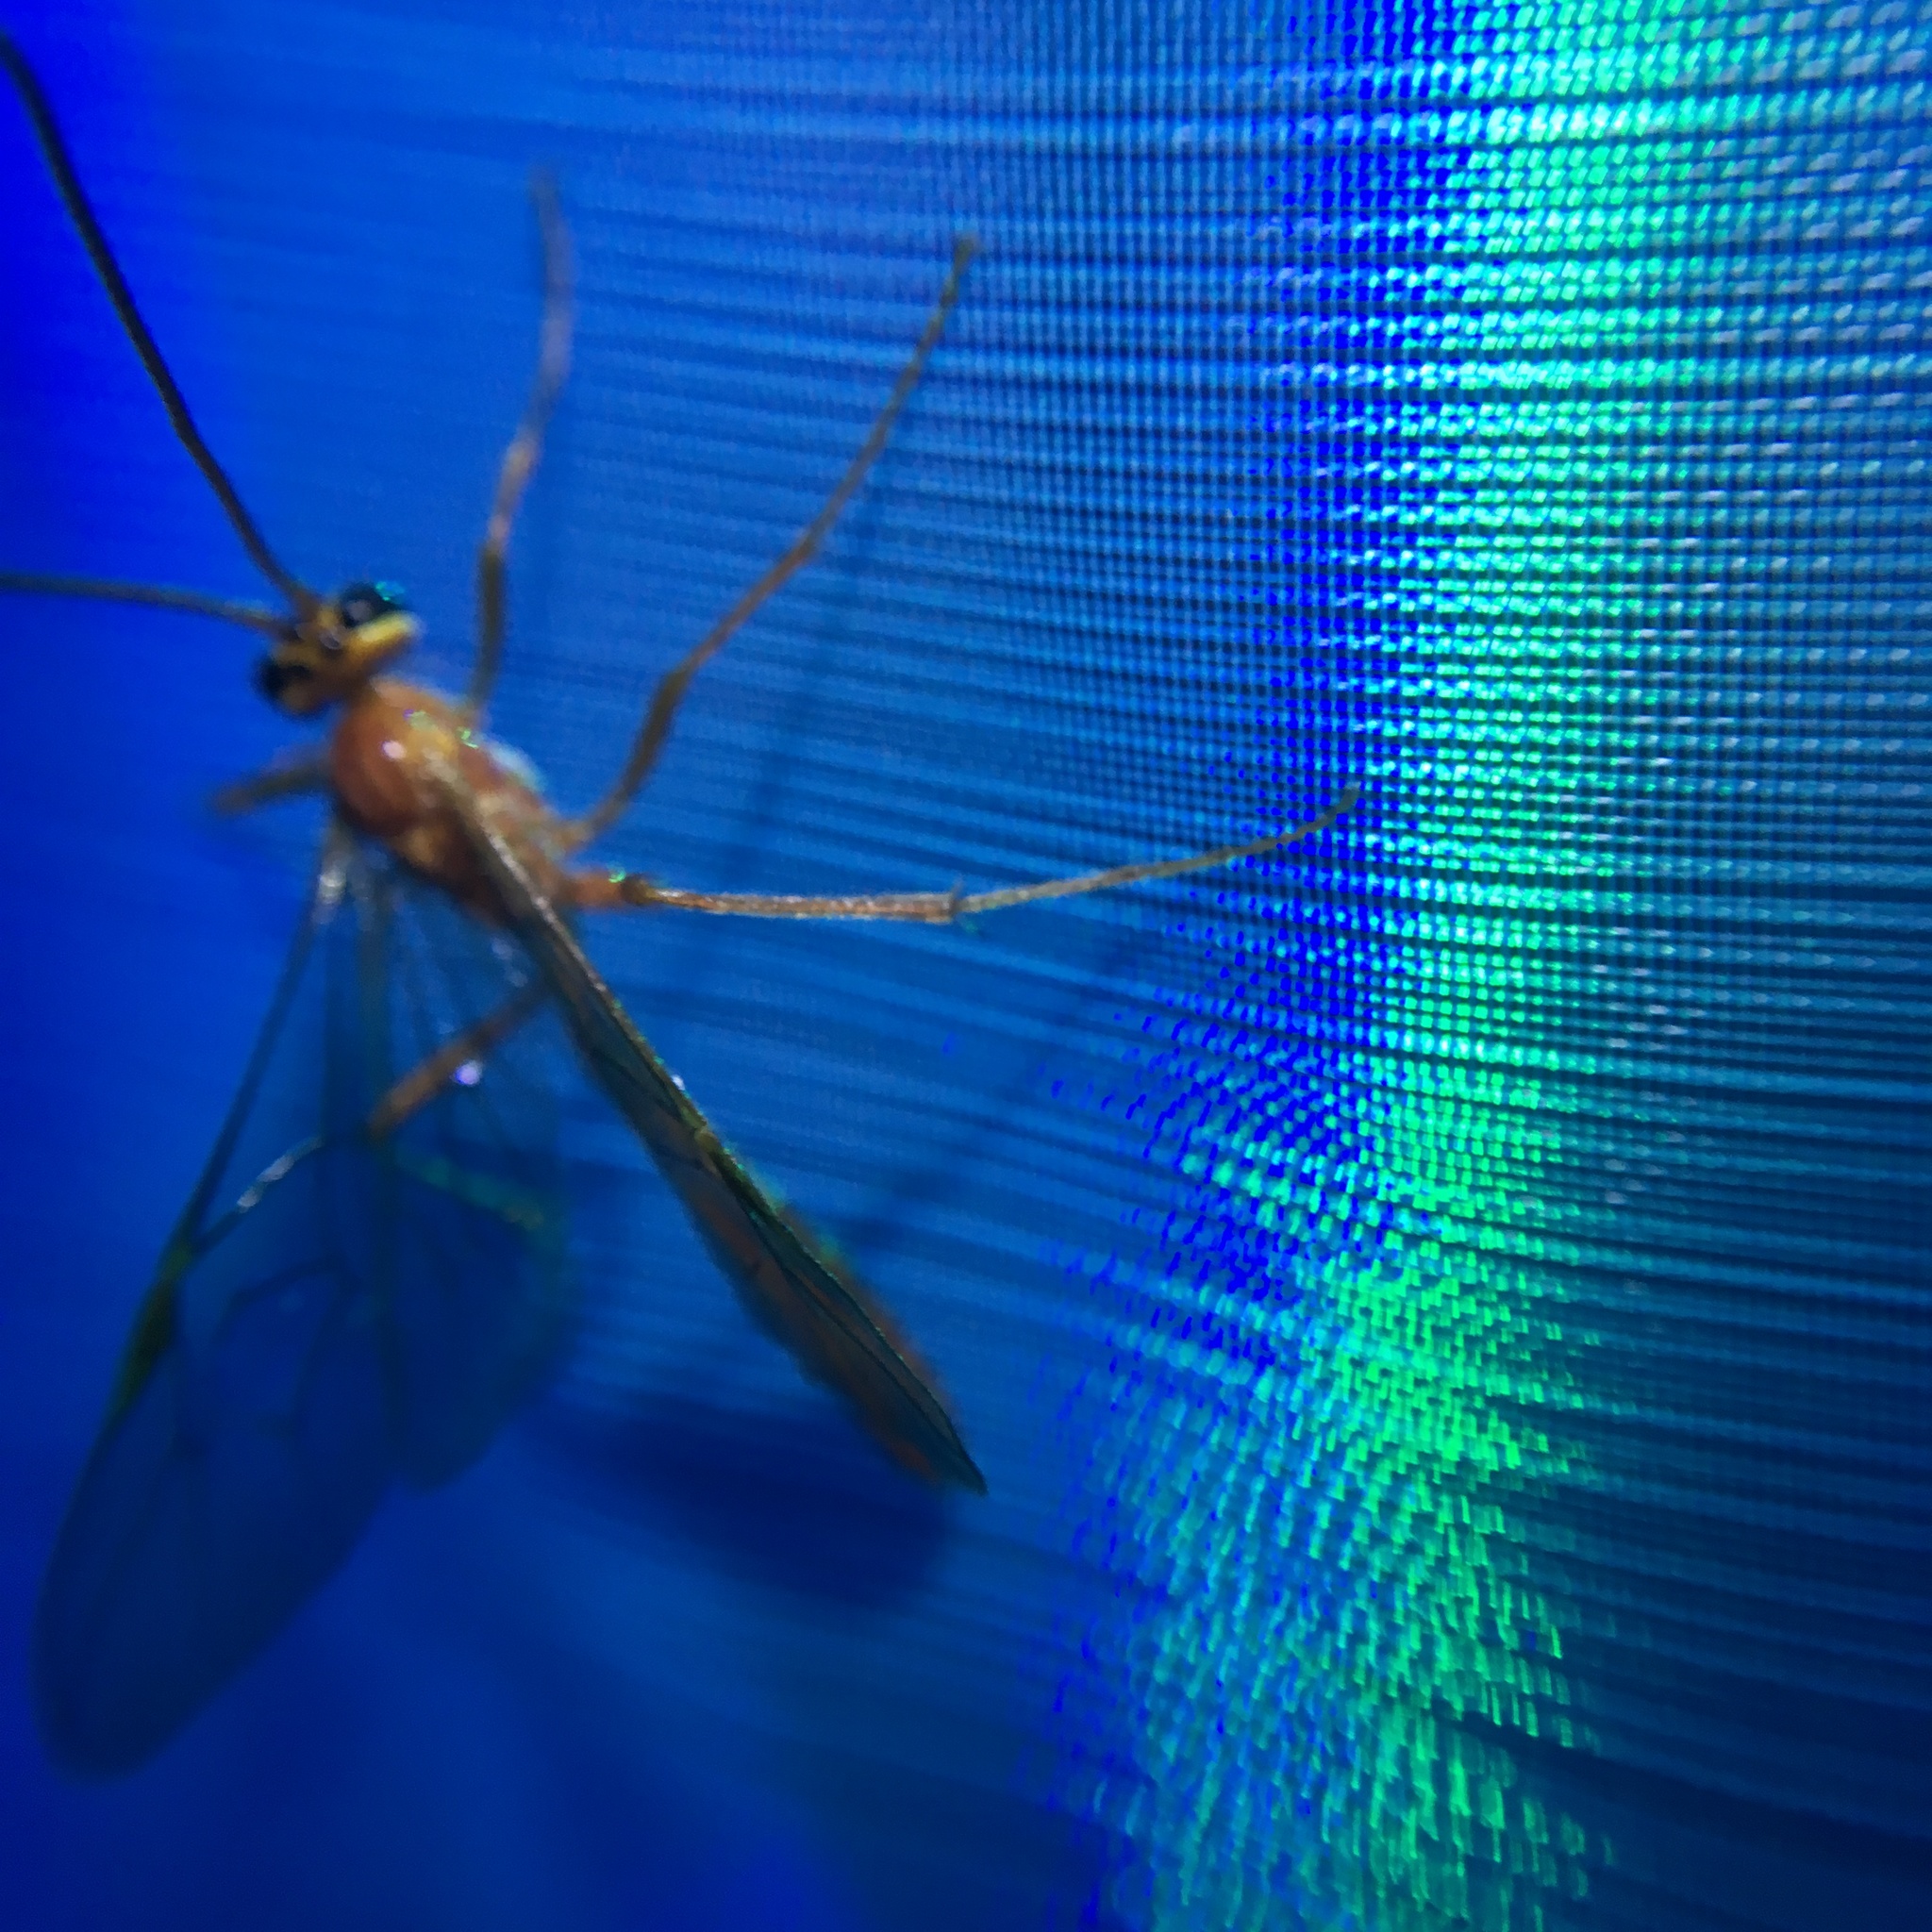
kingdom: Animalia
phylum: Arthropoda
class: Insecta
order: Hymenoptera
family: Ichneumonidae
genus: Ophion
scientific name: Ophion
